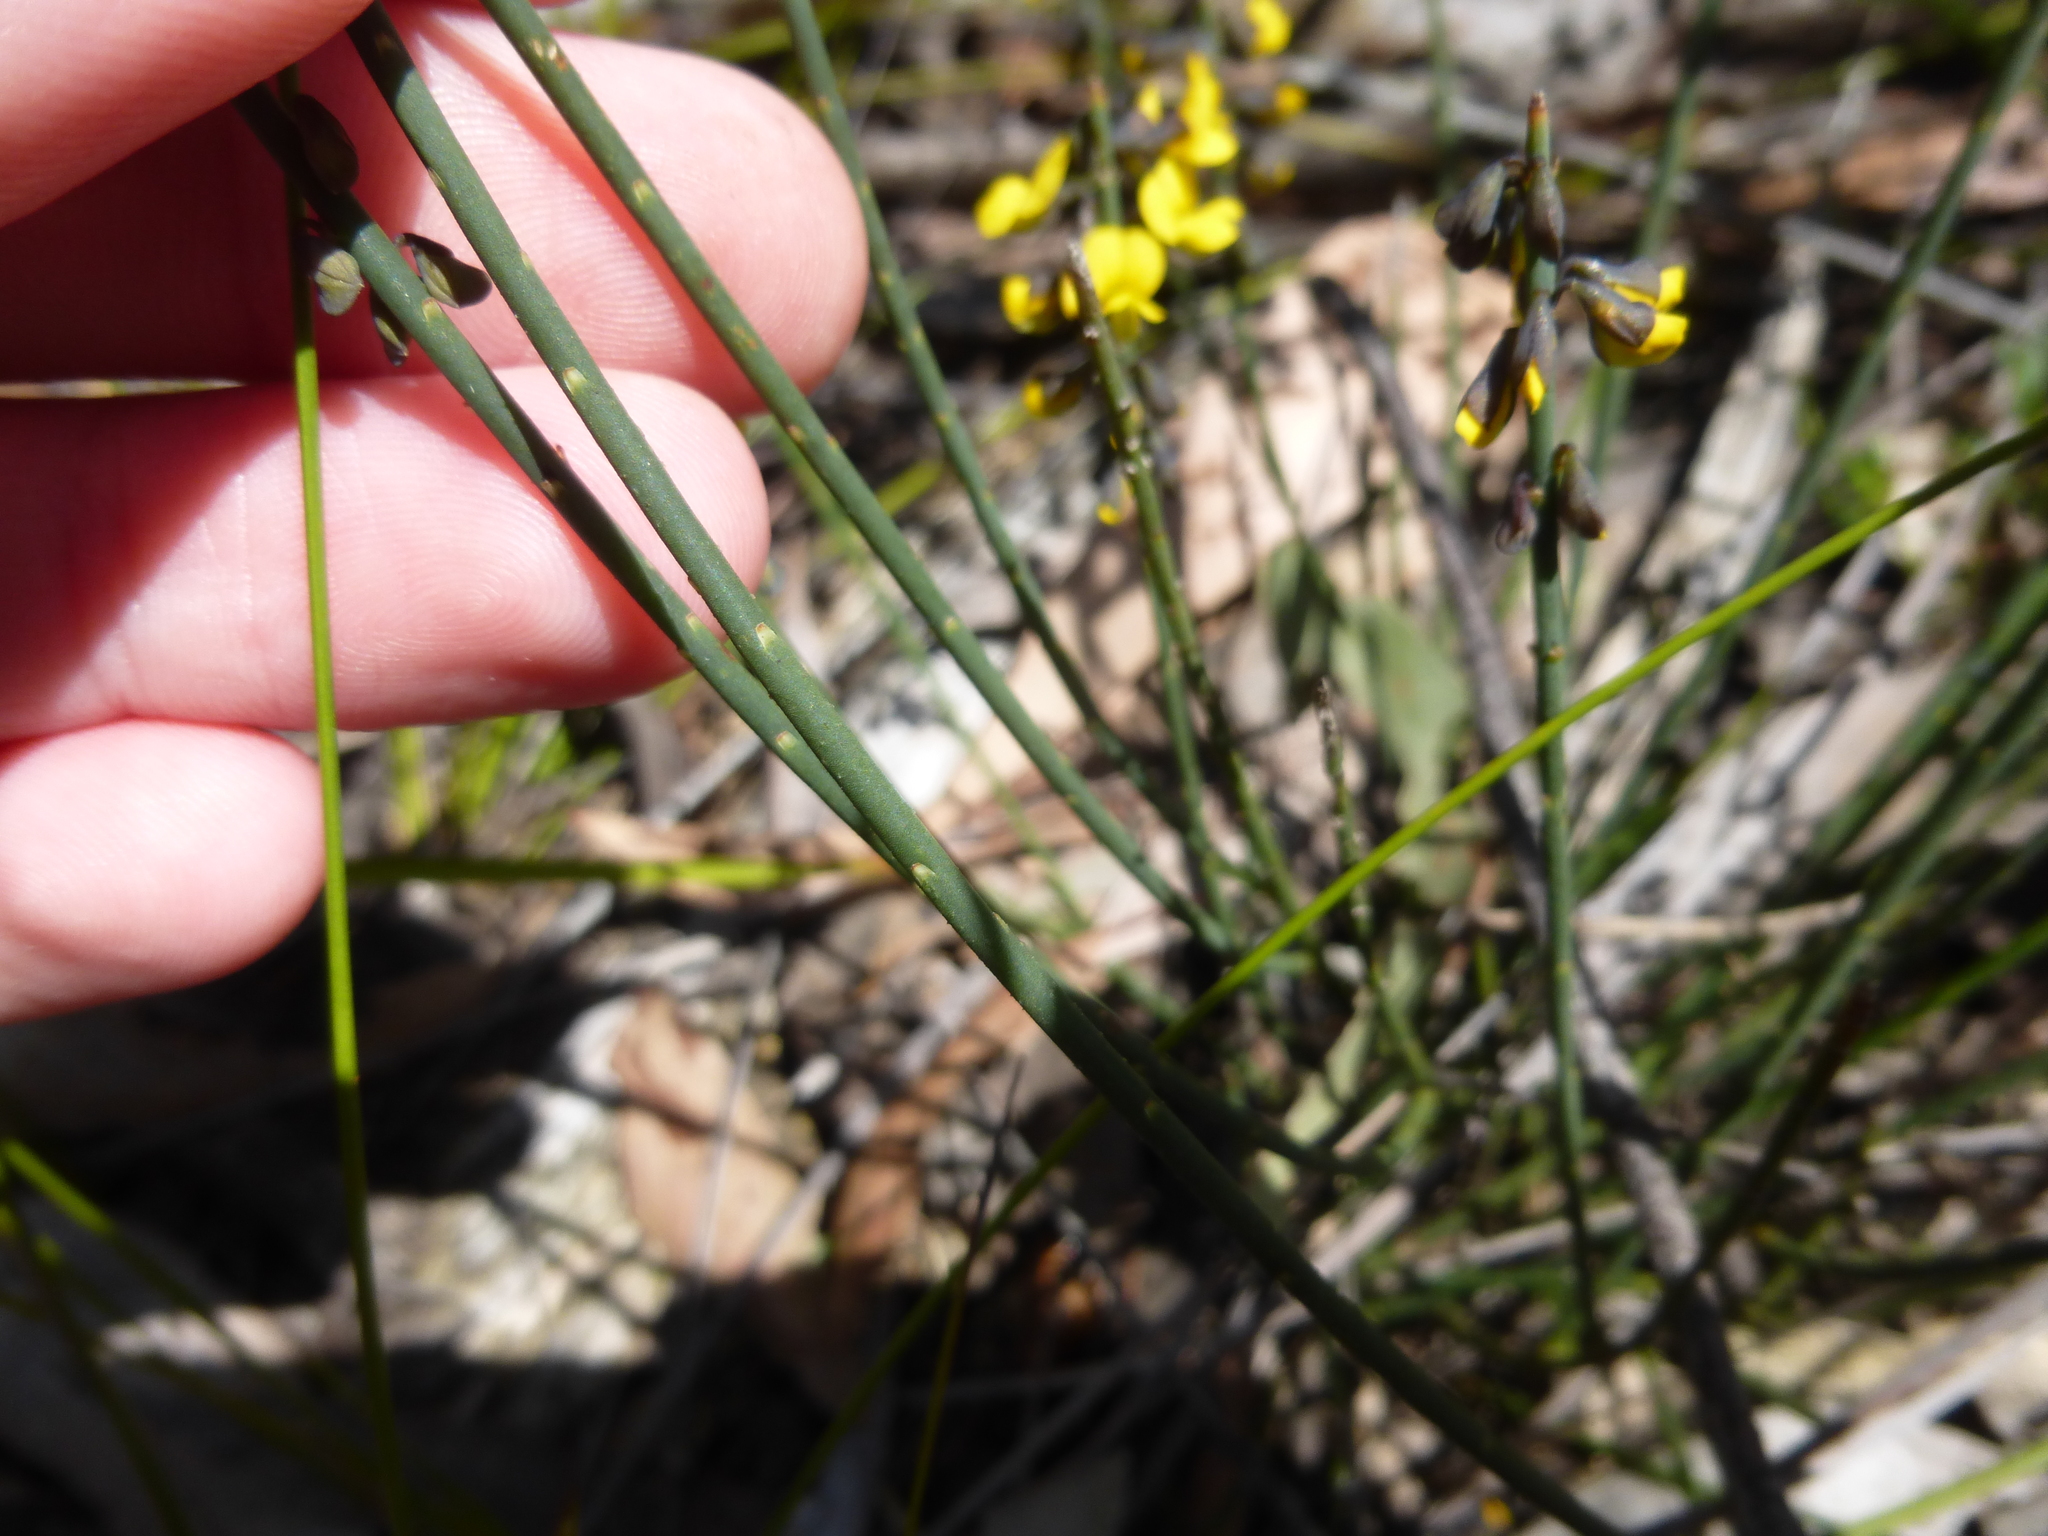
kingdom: Plantae
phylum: Tracheophyta
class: Magnoliopsida
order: Fabales
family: Fabaceae
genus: Sphaerolobium
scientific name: Sphaerolobium minus
